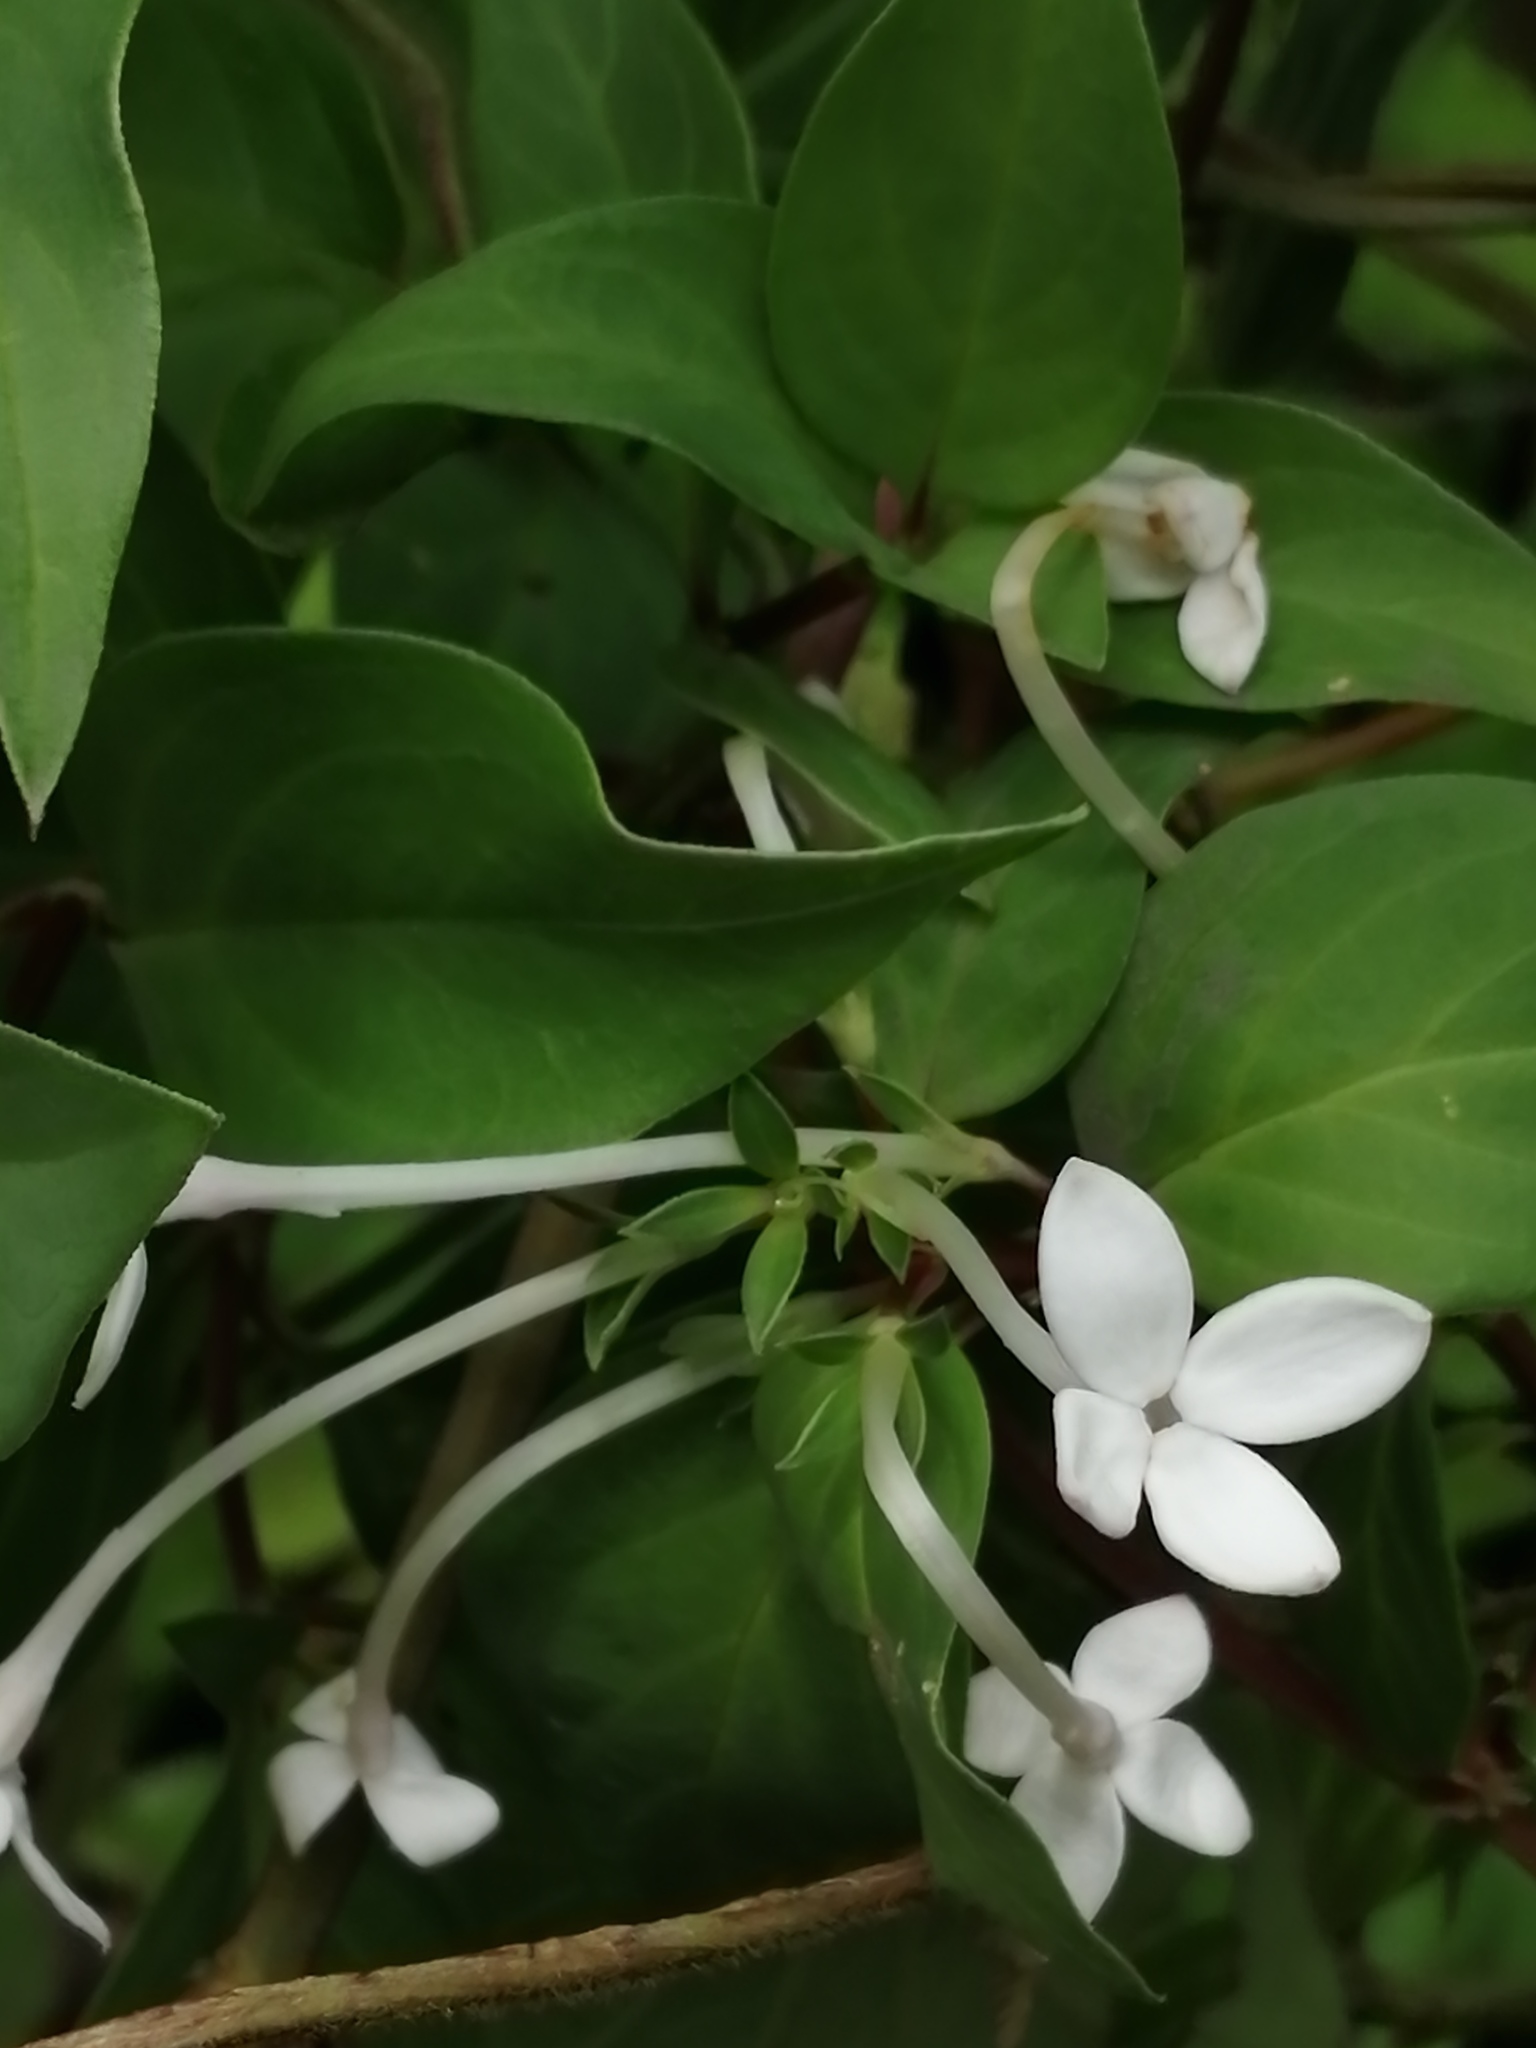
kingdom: Plantae
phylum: Tracheophyta
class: Magnoliopsida
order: Gentianales
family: Rubiaceae
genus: Bouvardia
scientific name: Bouvardia longiflora
